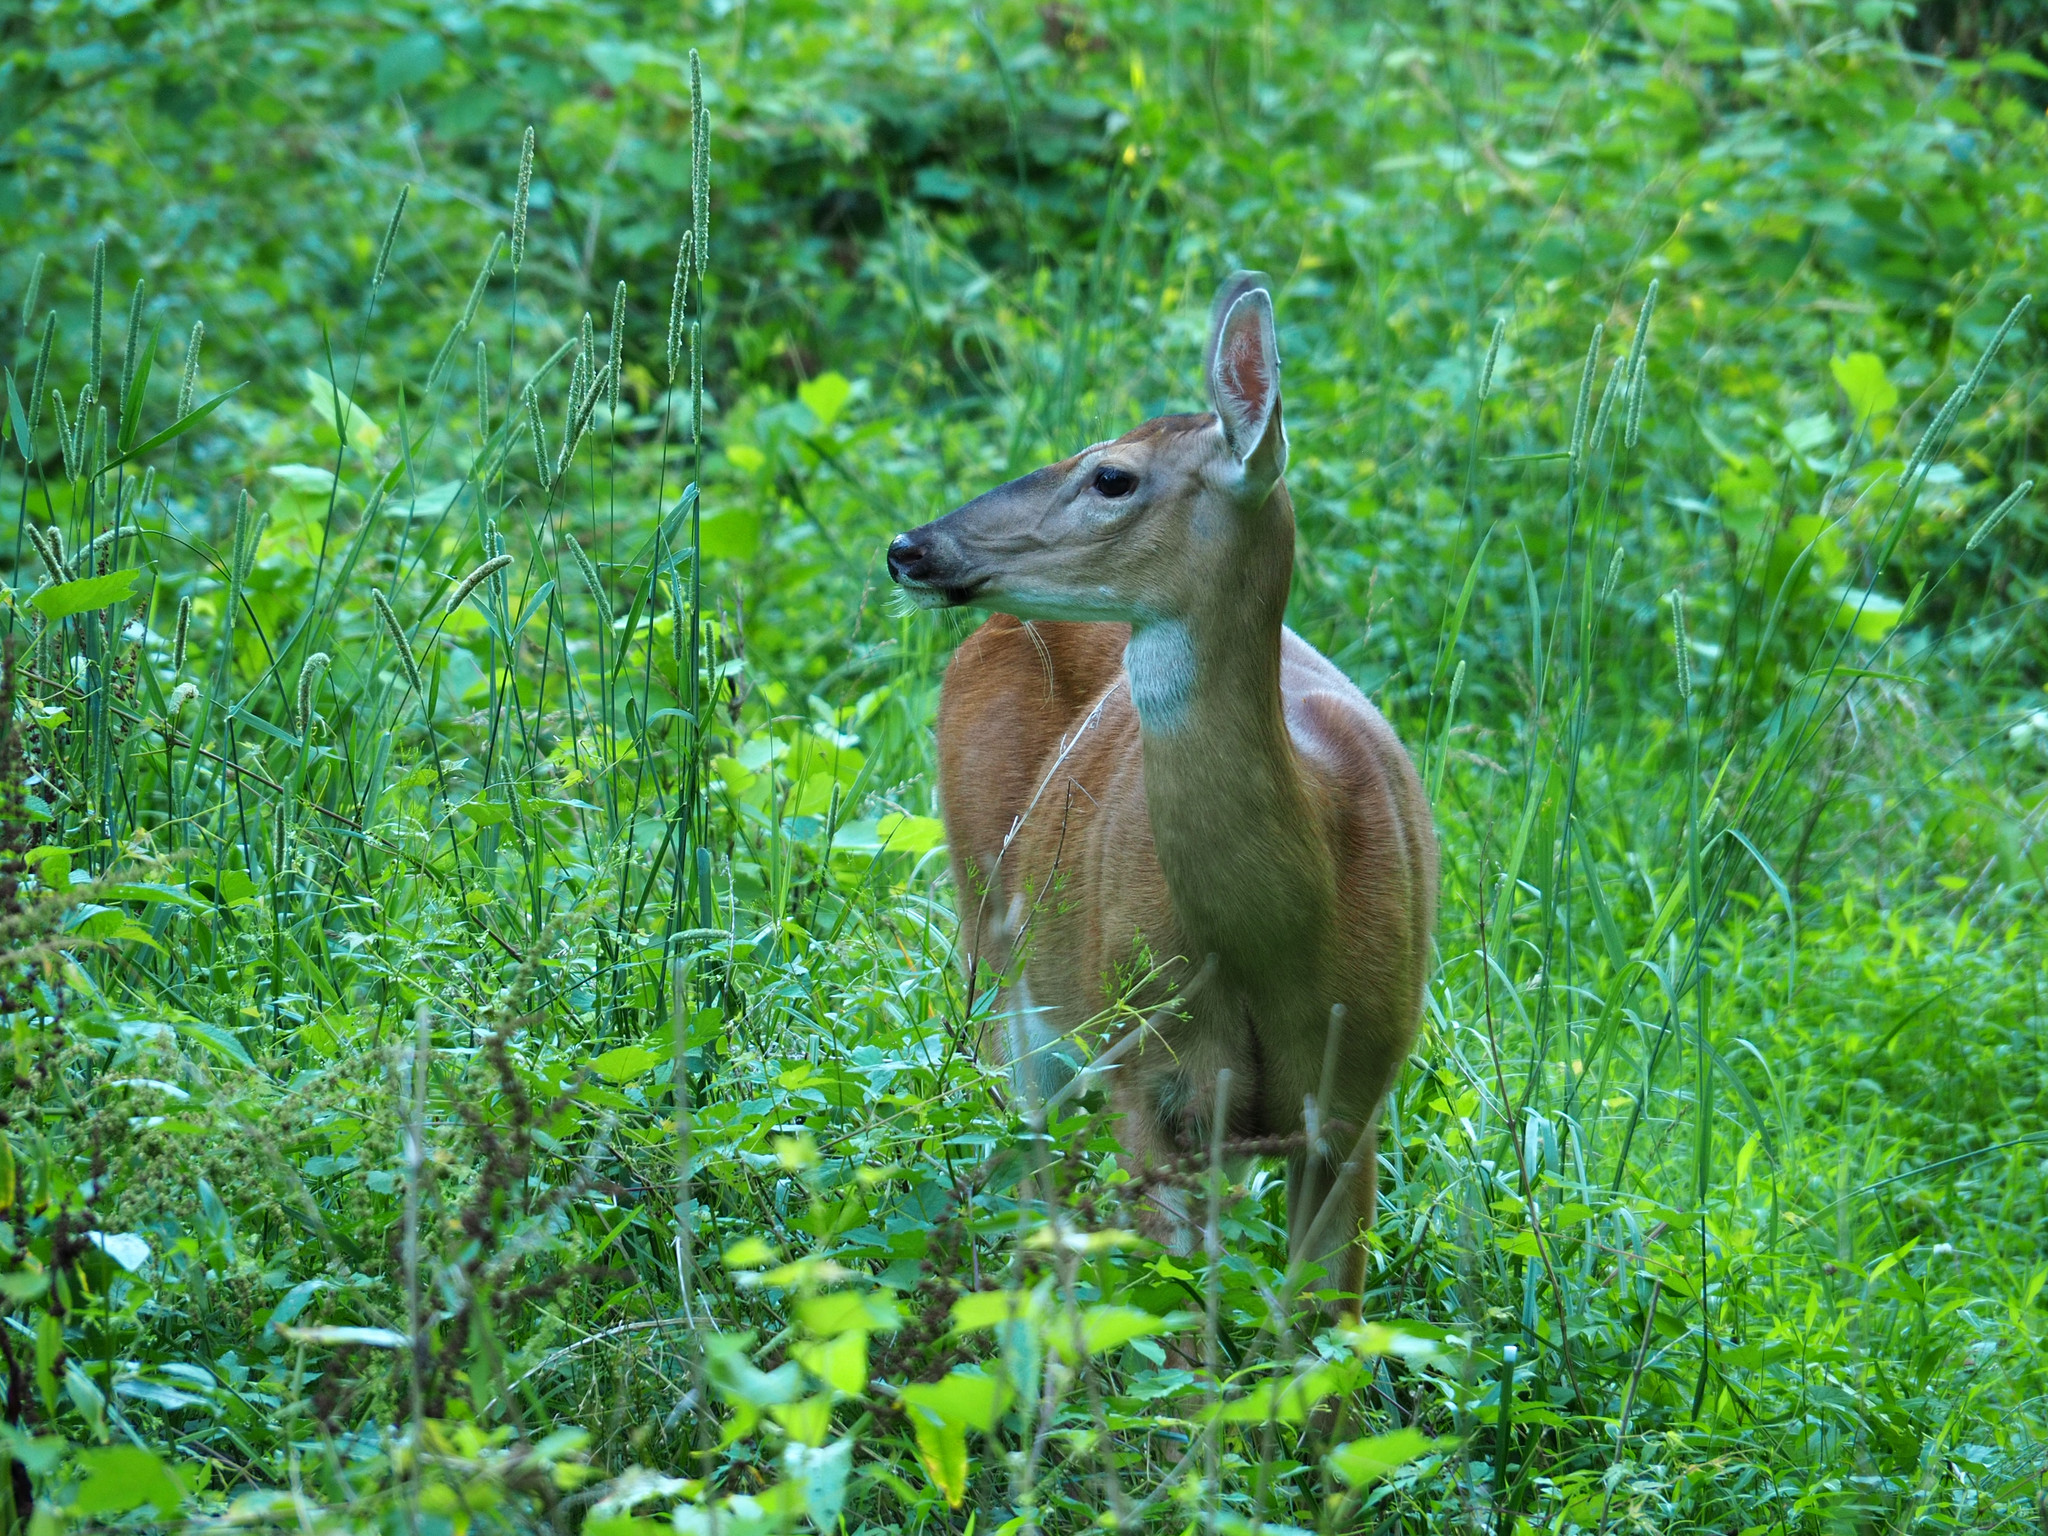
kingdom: Animalia
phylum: Chordata
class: Mammalia
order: Artiodactyla
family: Cervidae
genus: Odocoileus
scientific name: Odocoileus virginianus
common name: White-tailed deer
